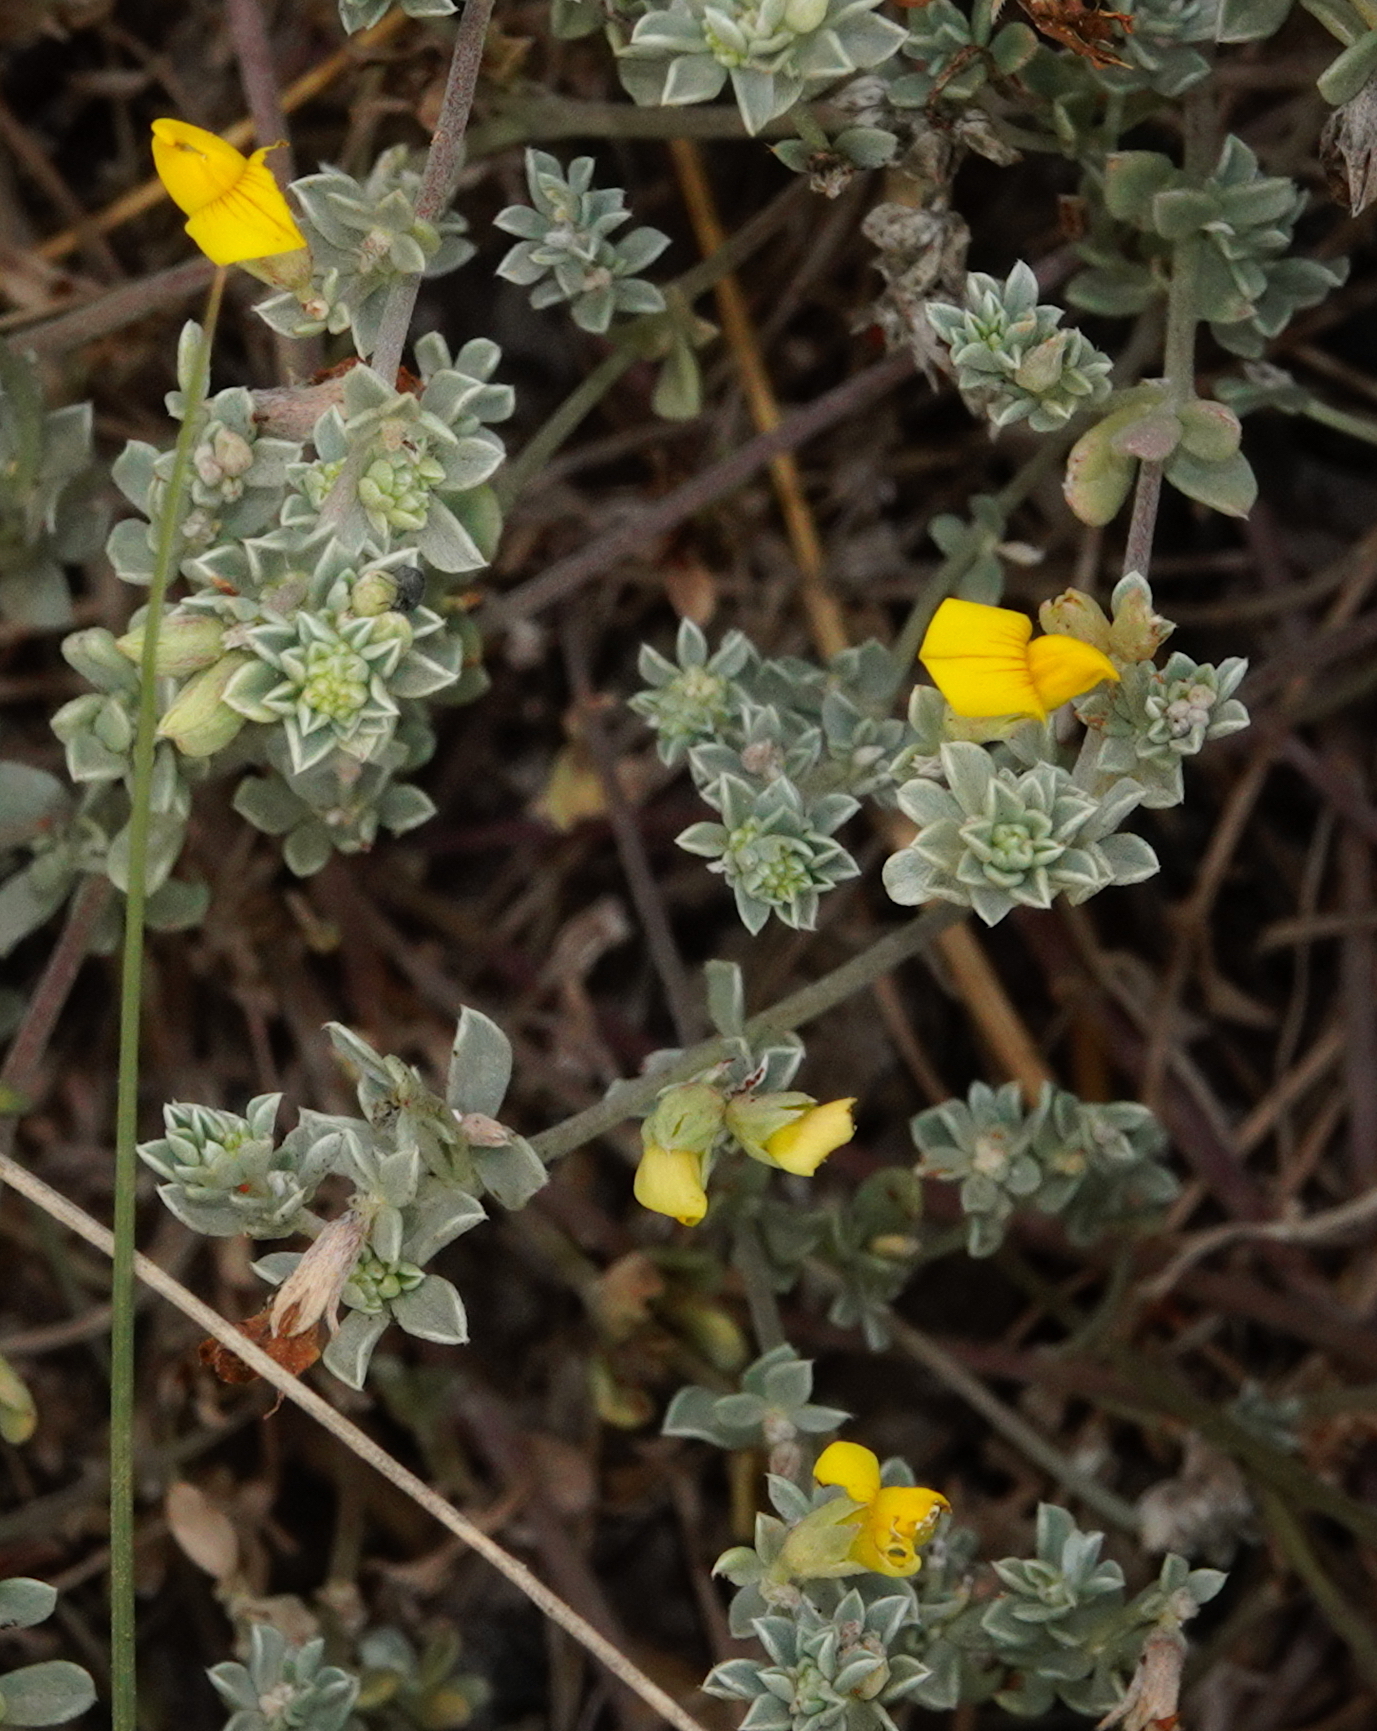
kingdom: Plantae
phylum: Tracheophyta
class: Magnoliopsida
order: Fabales
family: Fabaceae
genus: Lotus
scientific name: Lotus creticus
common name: Cretan bird's-foot trefoil
